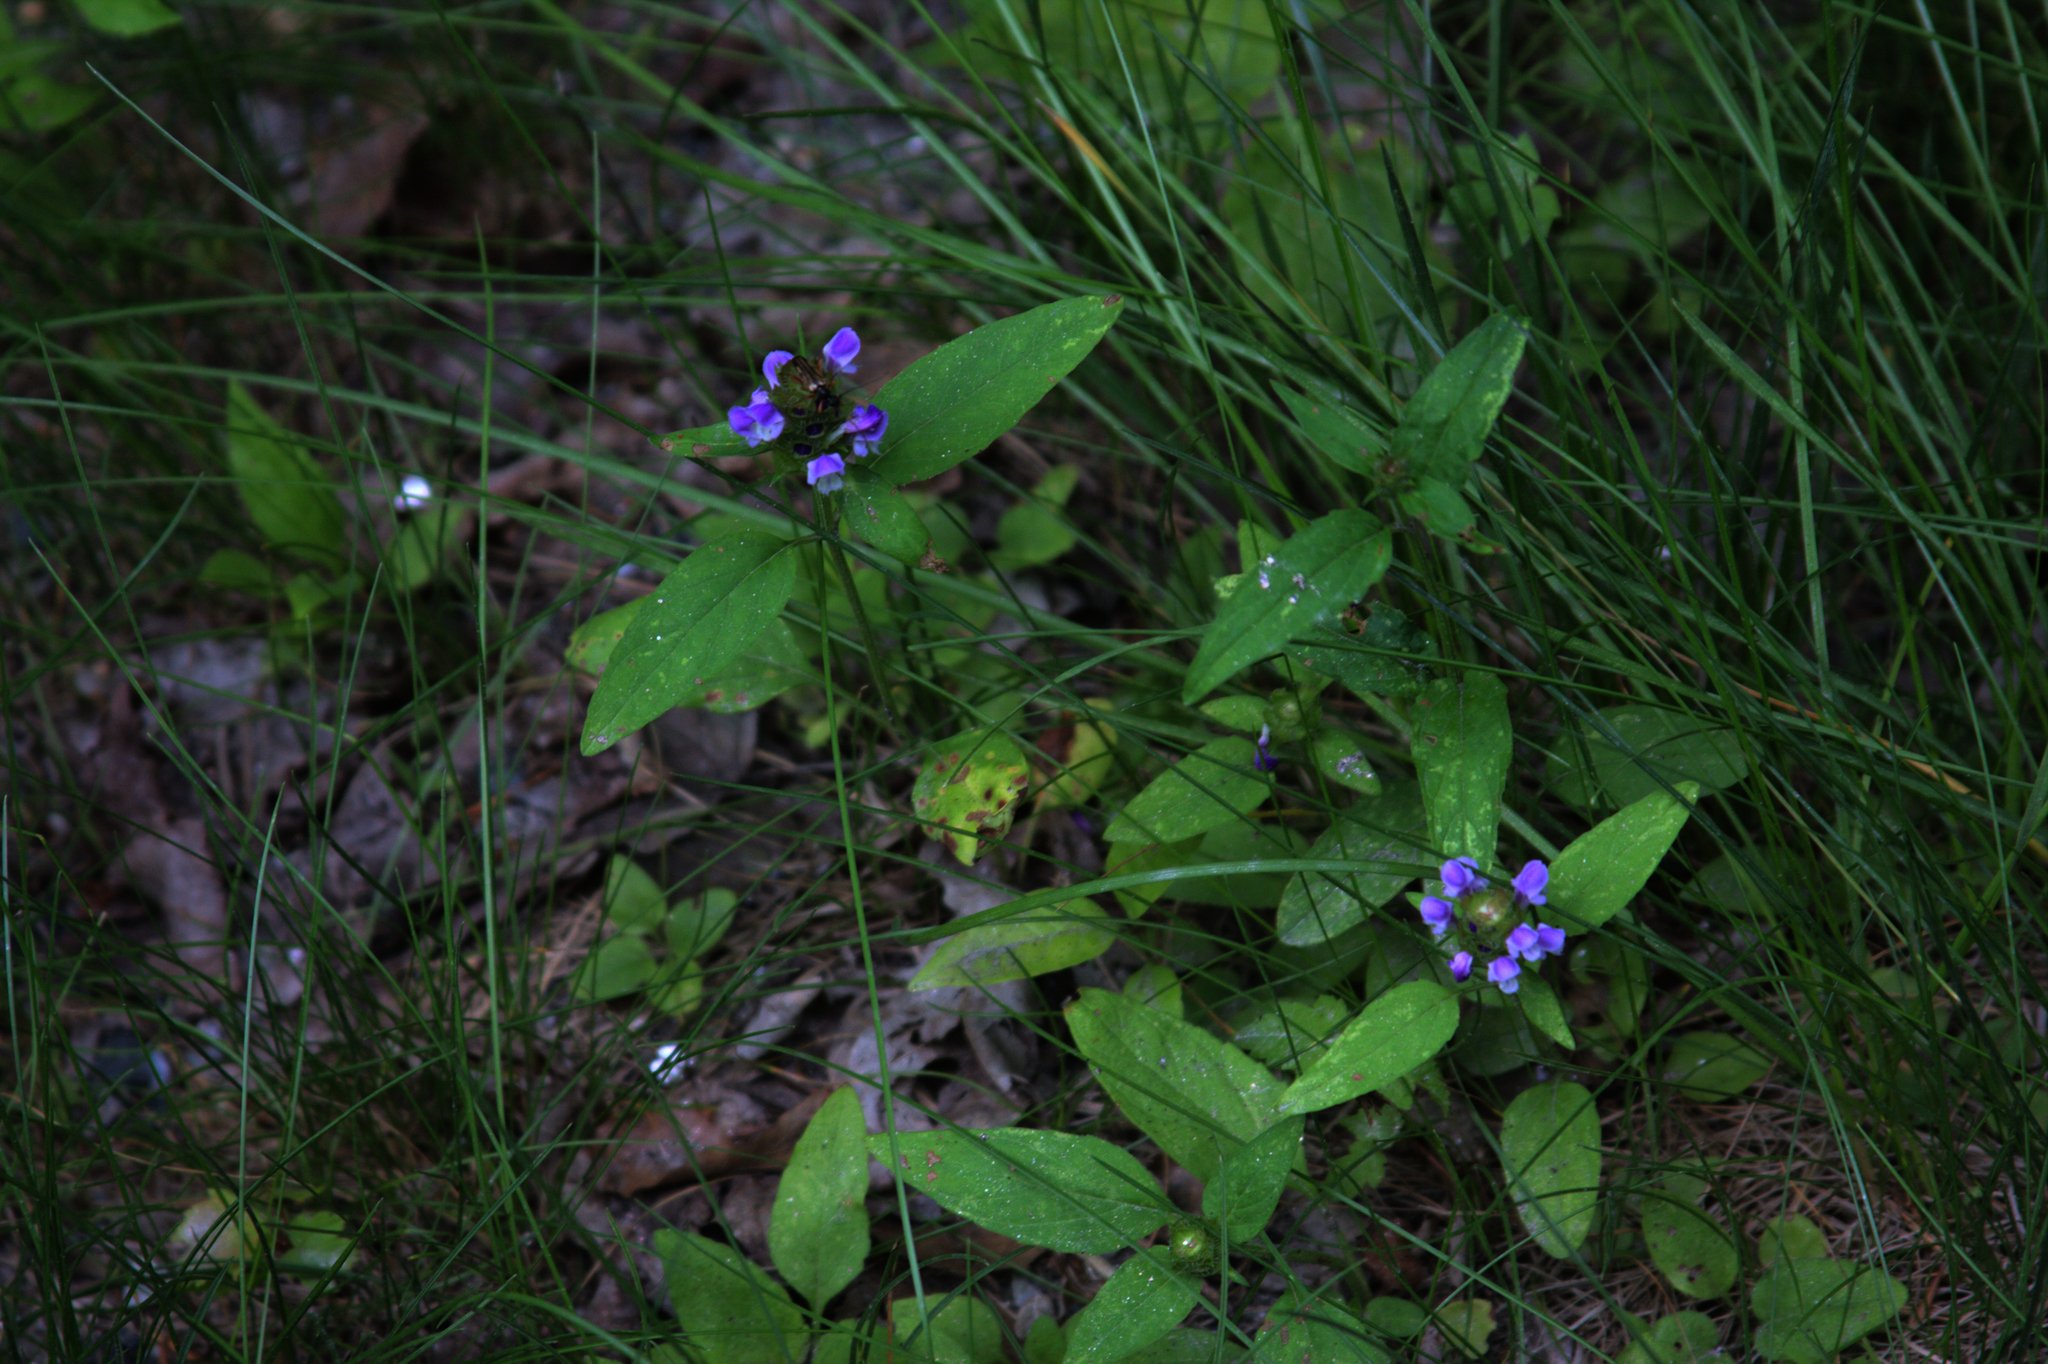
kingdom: Plantae
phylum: Tracheophyta
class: Magnoliopsida
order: Lamiales
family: Lamiaceae
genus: Prunella
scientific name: Prunella vulgaris
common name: Heal-all
